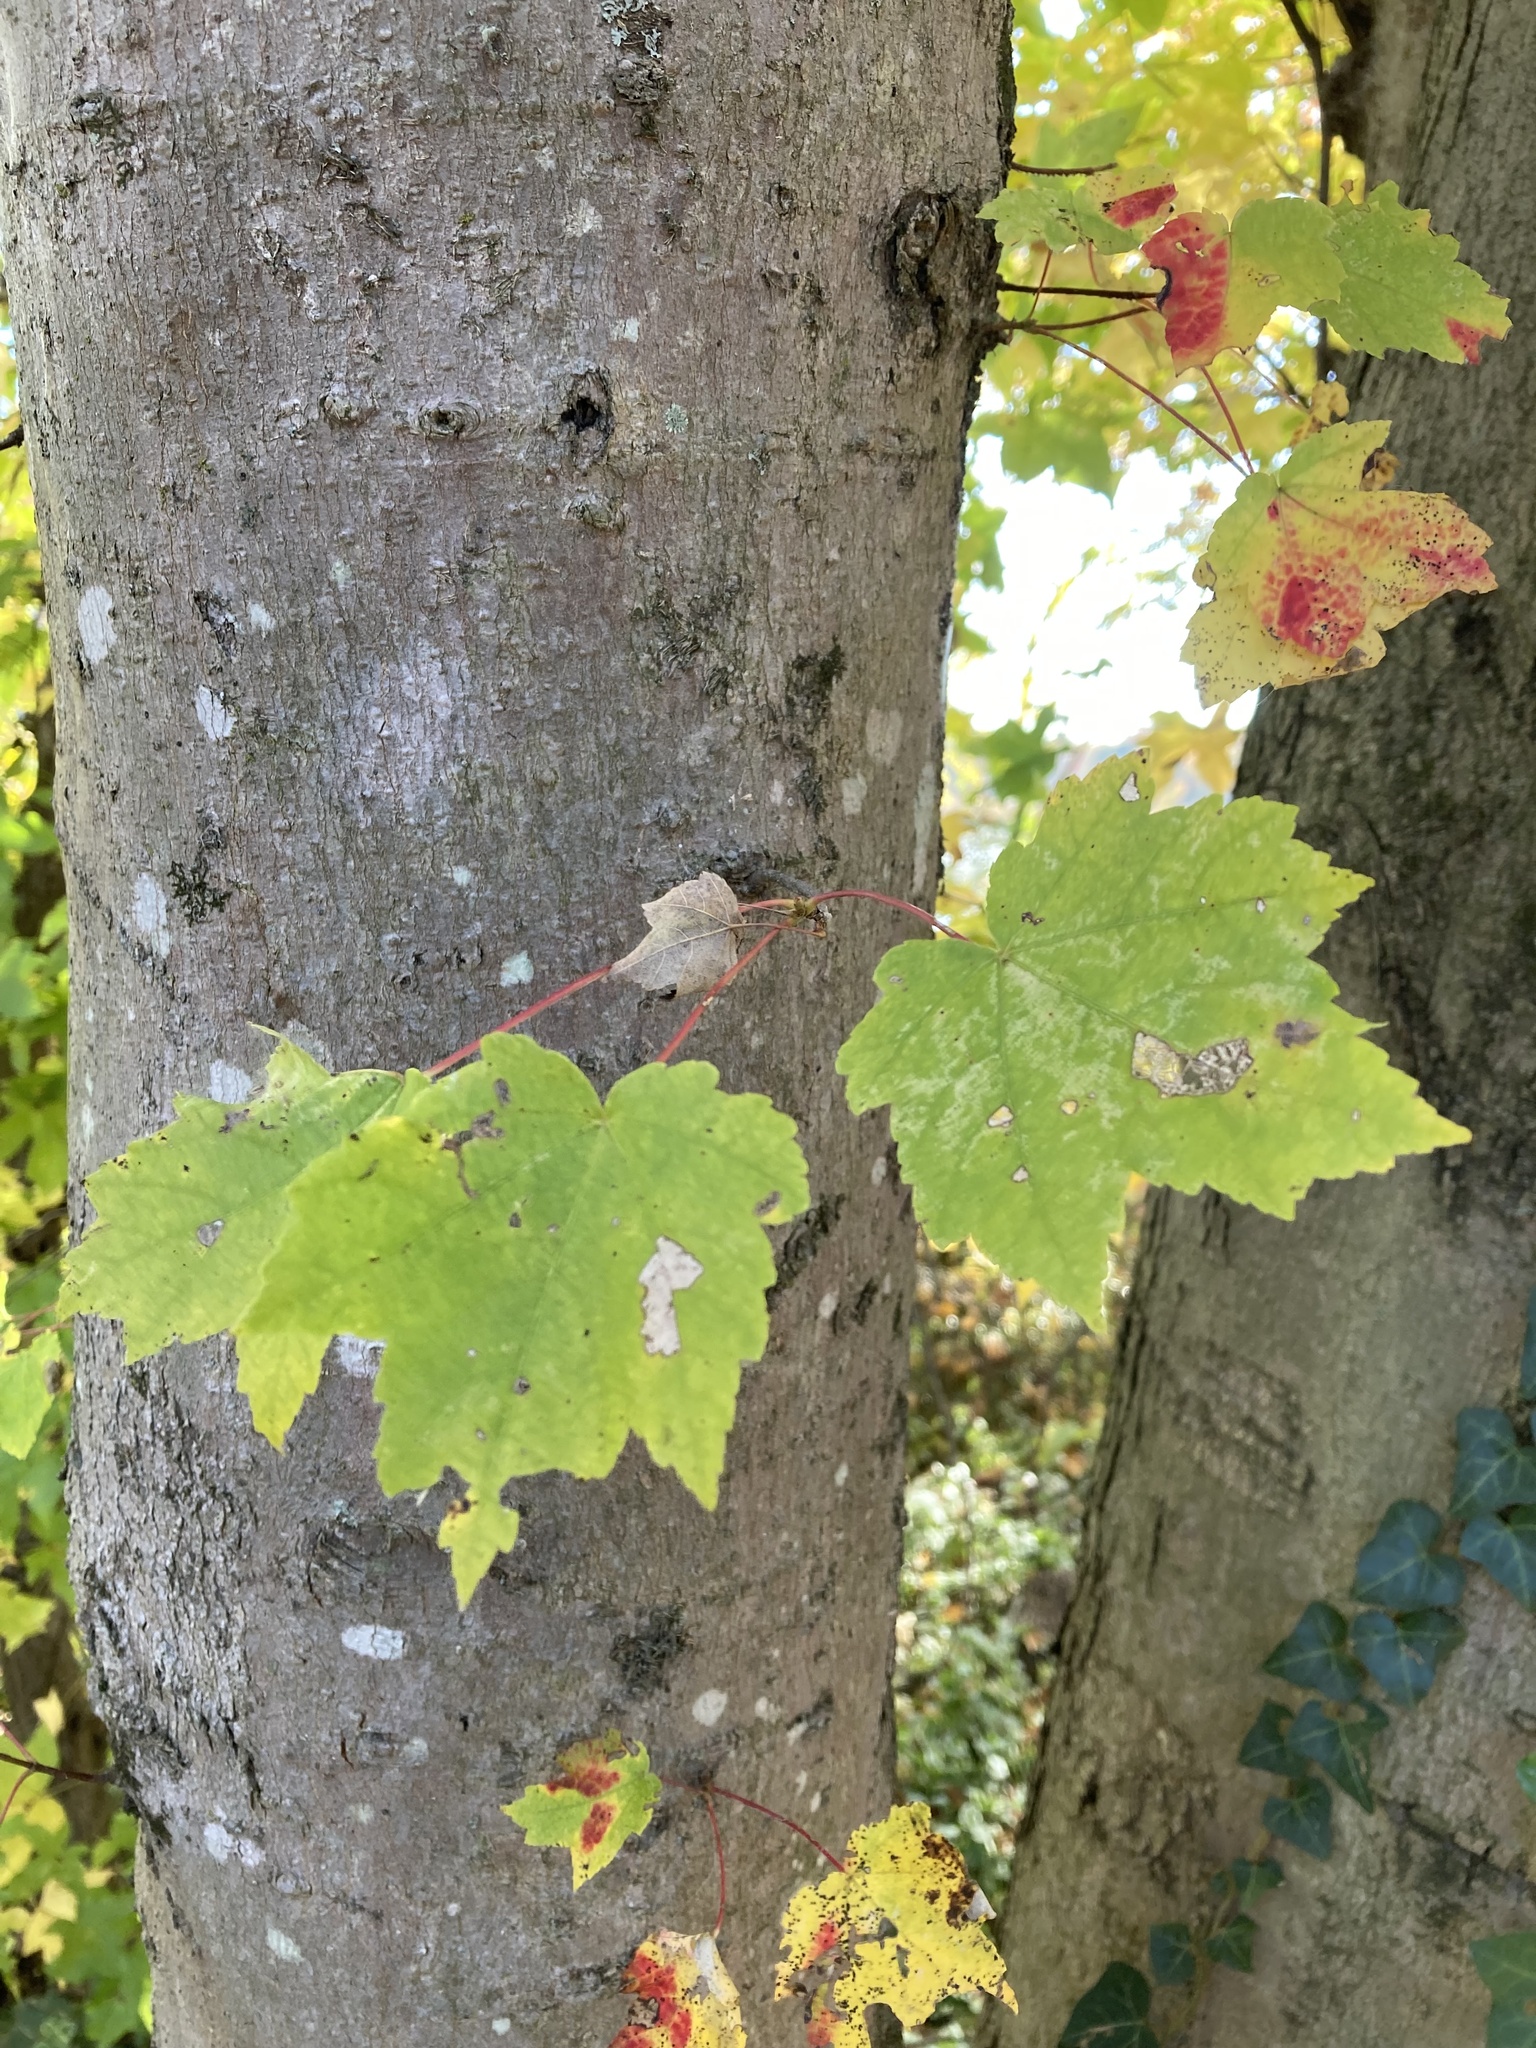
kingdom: Plantae
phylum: Tracheophyta
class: Magnoliopsida
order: Sapindales
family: Sapindaceae
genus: Acer
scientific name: Acer rubrum
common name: Red maple
